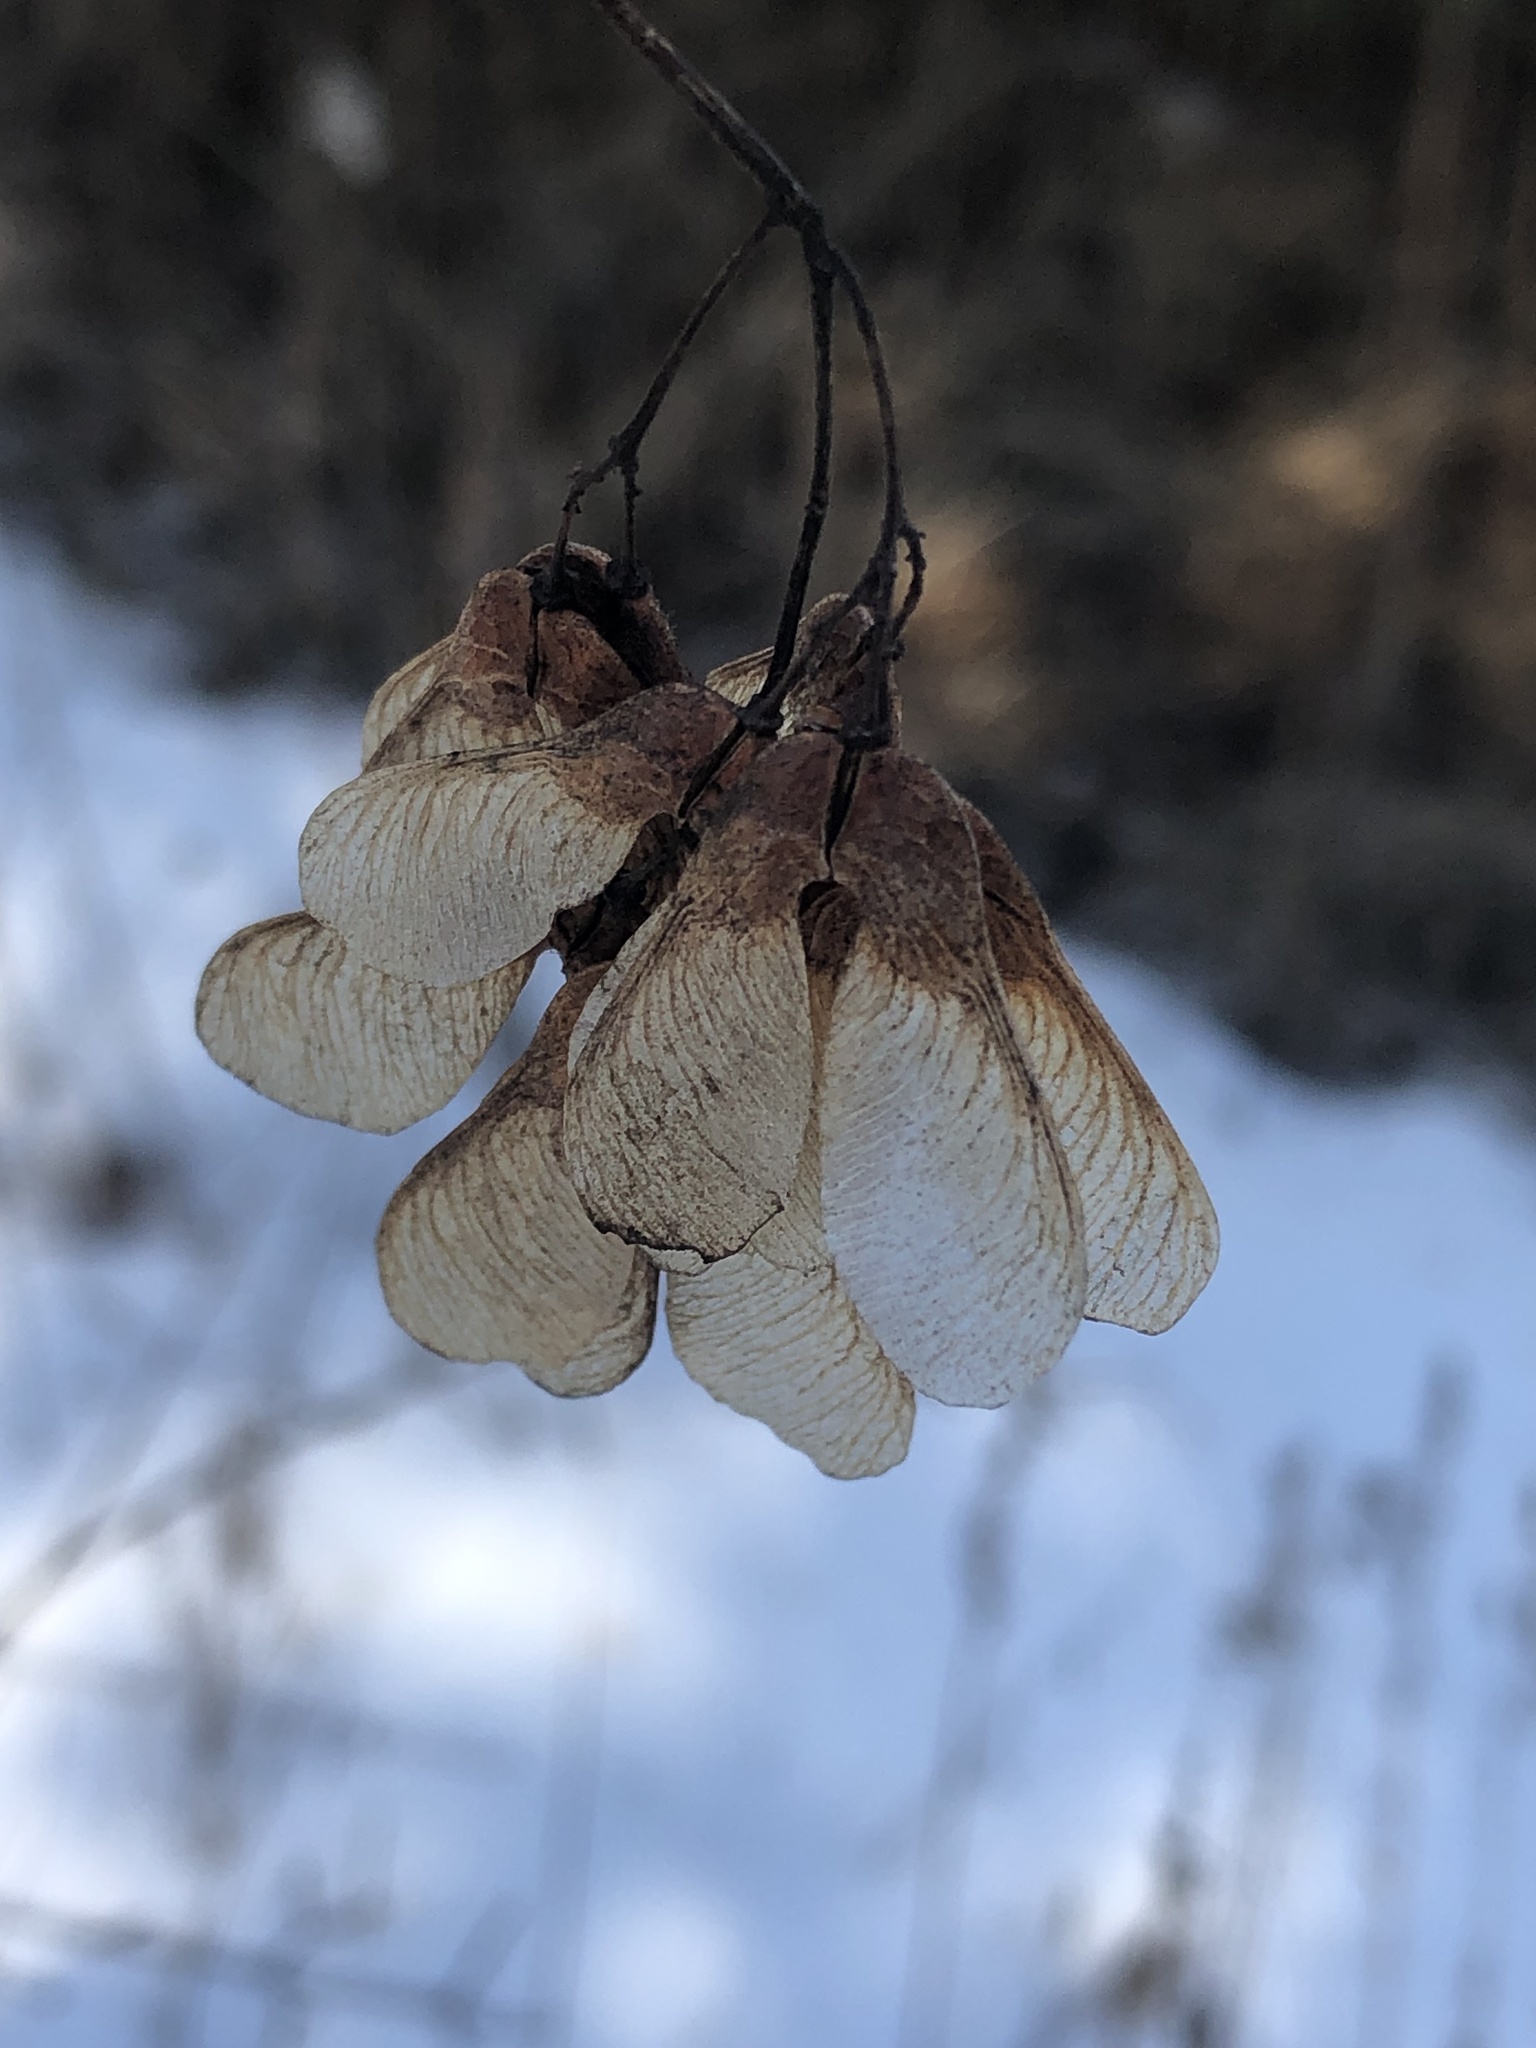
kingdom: Plantae
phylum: Tracheophyta
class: Magnoliopsida
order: Sapindales
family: Sapindaceae
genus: Acer
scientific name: Acer tataricum
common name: Tartar maple
